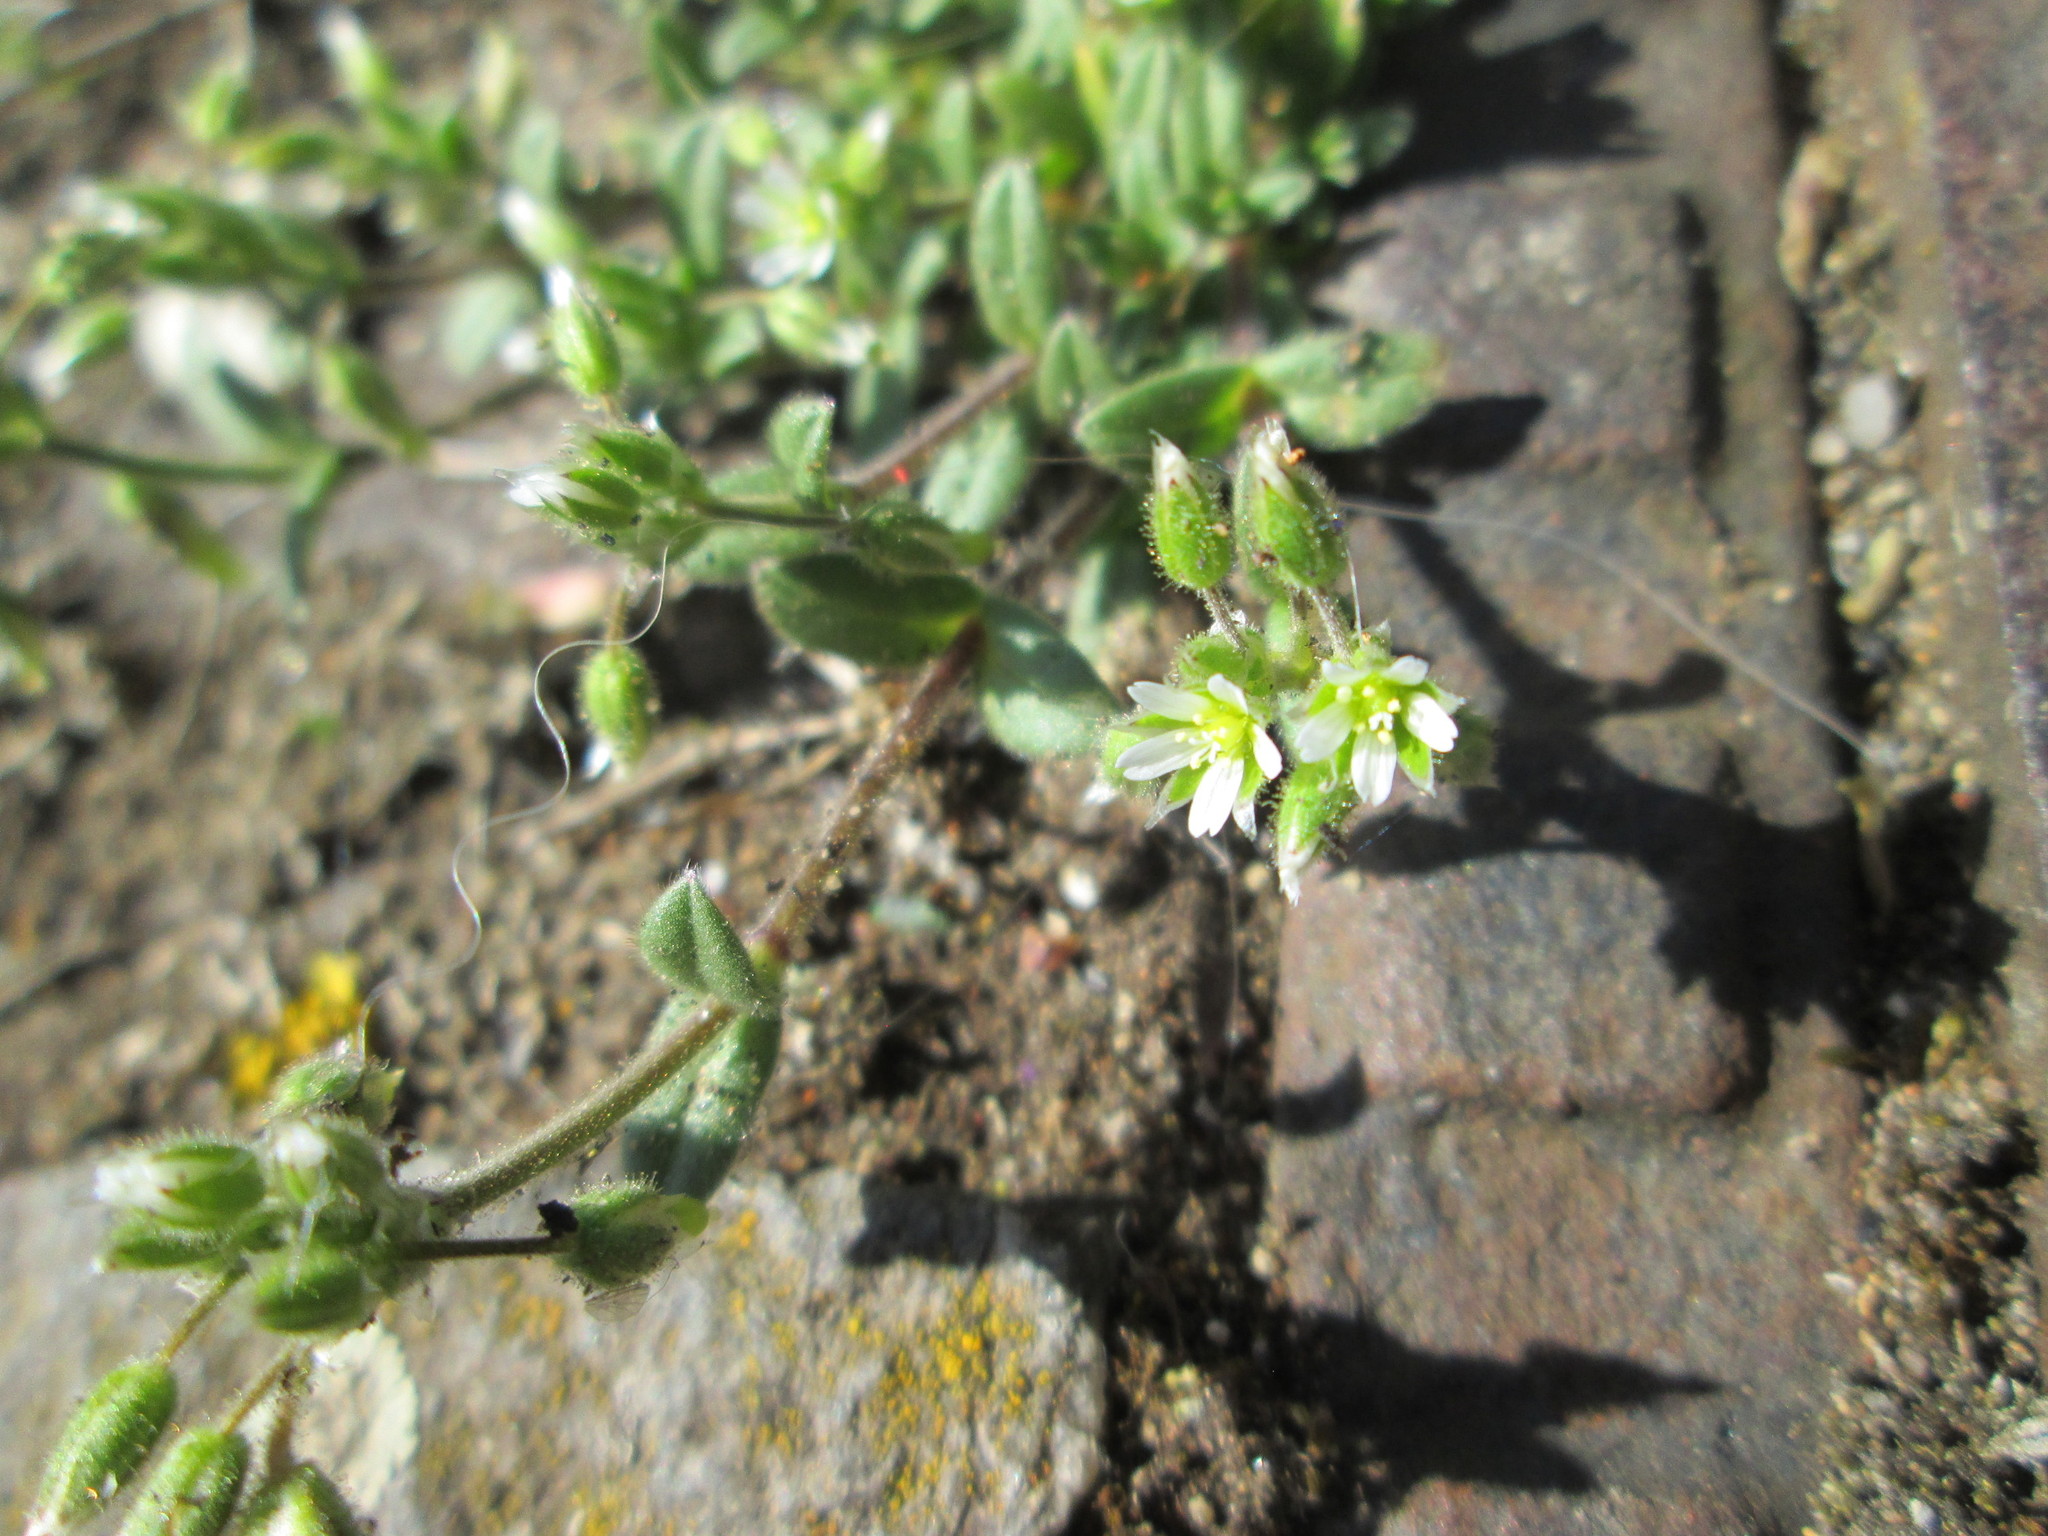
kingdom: Plantae
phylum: Tracheophyta
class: Magnoliopsida
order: Caryophyllales
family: Caryophyllaceae
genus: Cerastium
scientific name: Cerastium semidecandrum
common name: Little mouse-ear
